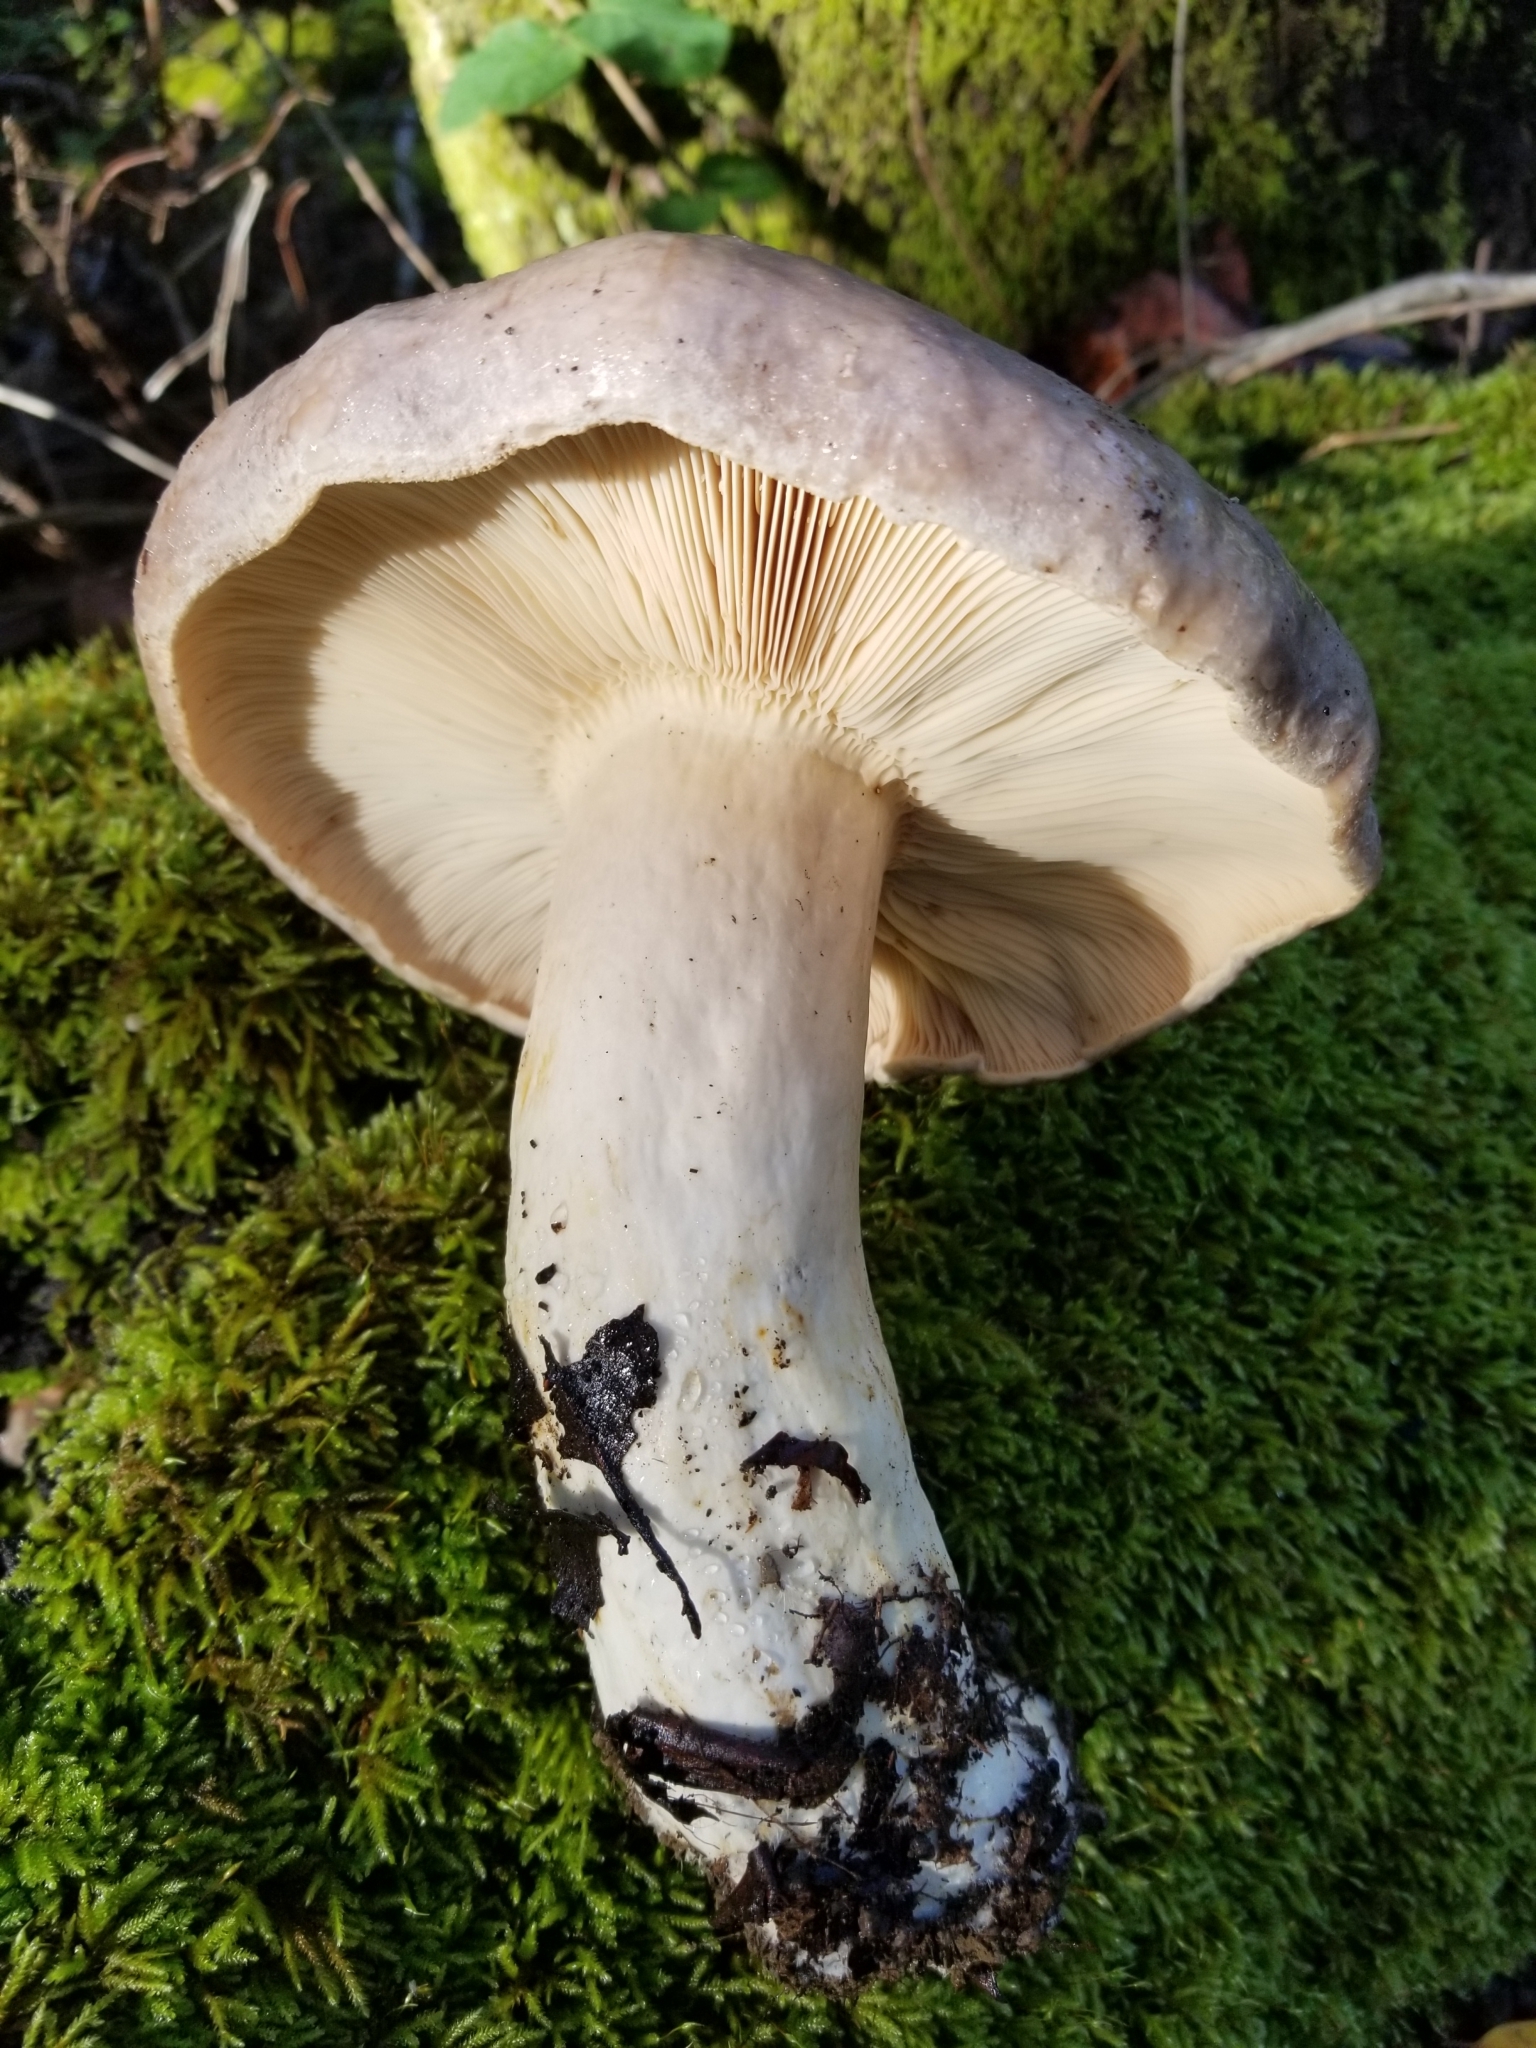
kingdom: Fungi
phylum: Basidiomycota
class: Agaricomycetes
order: Russulales
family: Russulaceae
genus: Lactarius
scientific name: Lactarius argillaceifolius
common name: Clay-gilled milkcap
